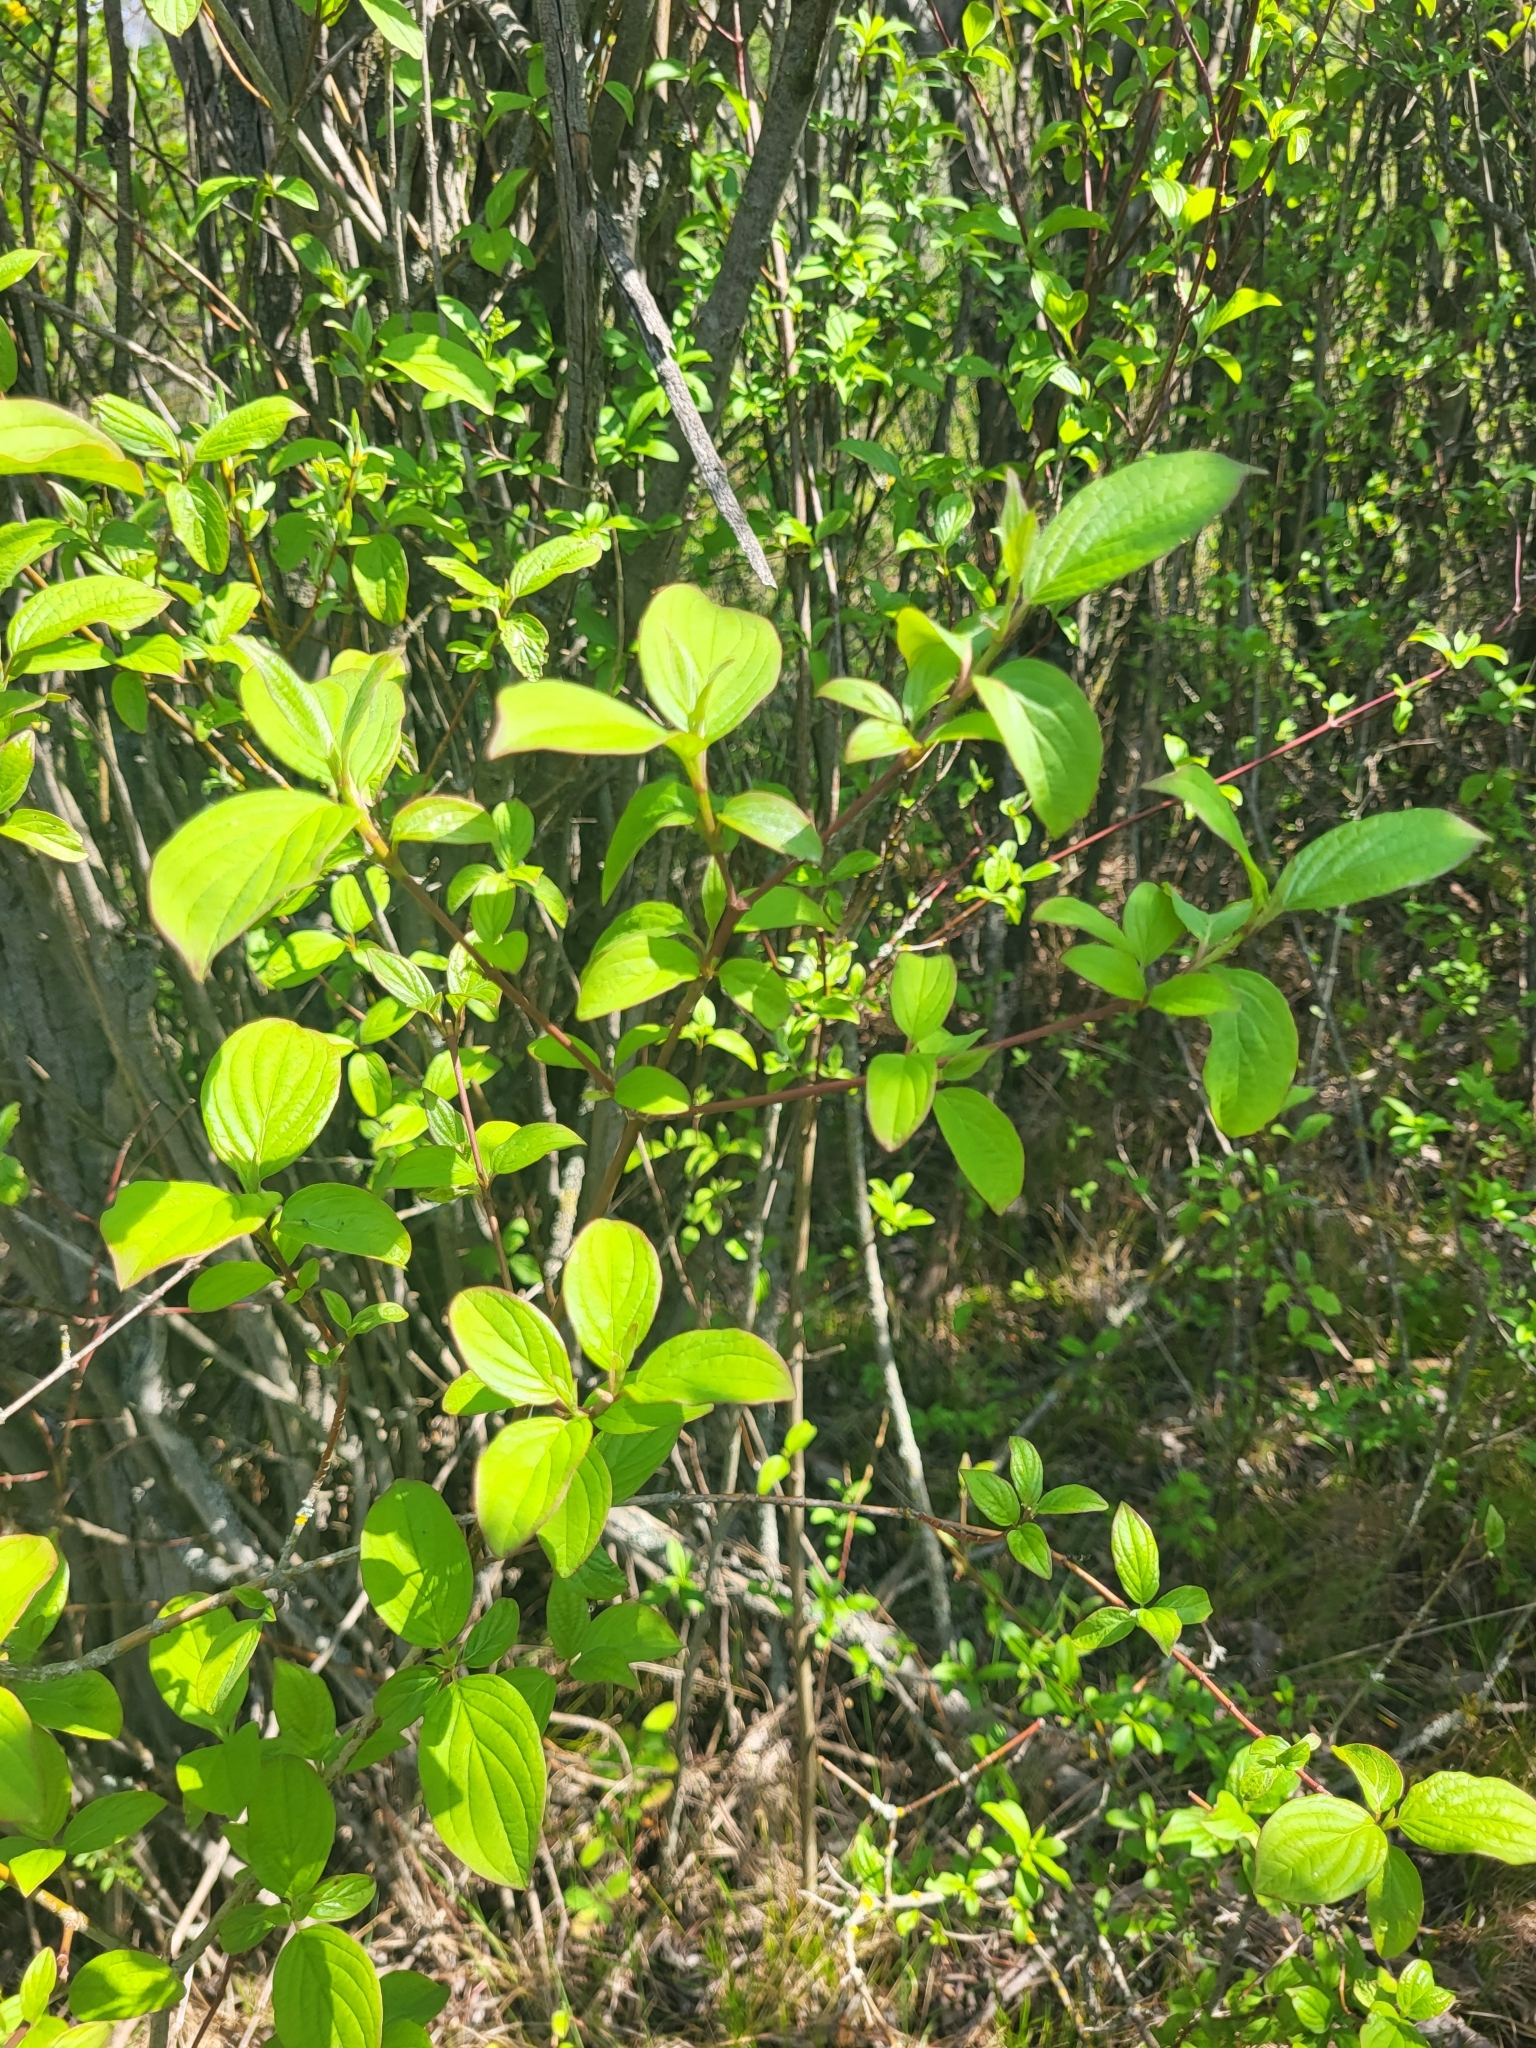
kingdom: Plantae
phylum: Tracheophyta
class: Magnoliopsida
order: Cornales
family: Cornaceae
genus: Cornus
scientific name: Cornus sanguinea
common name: Dogwood
